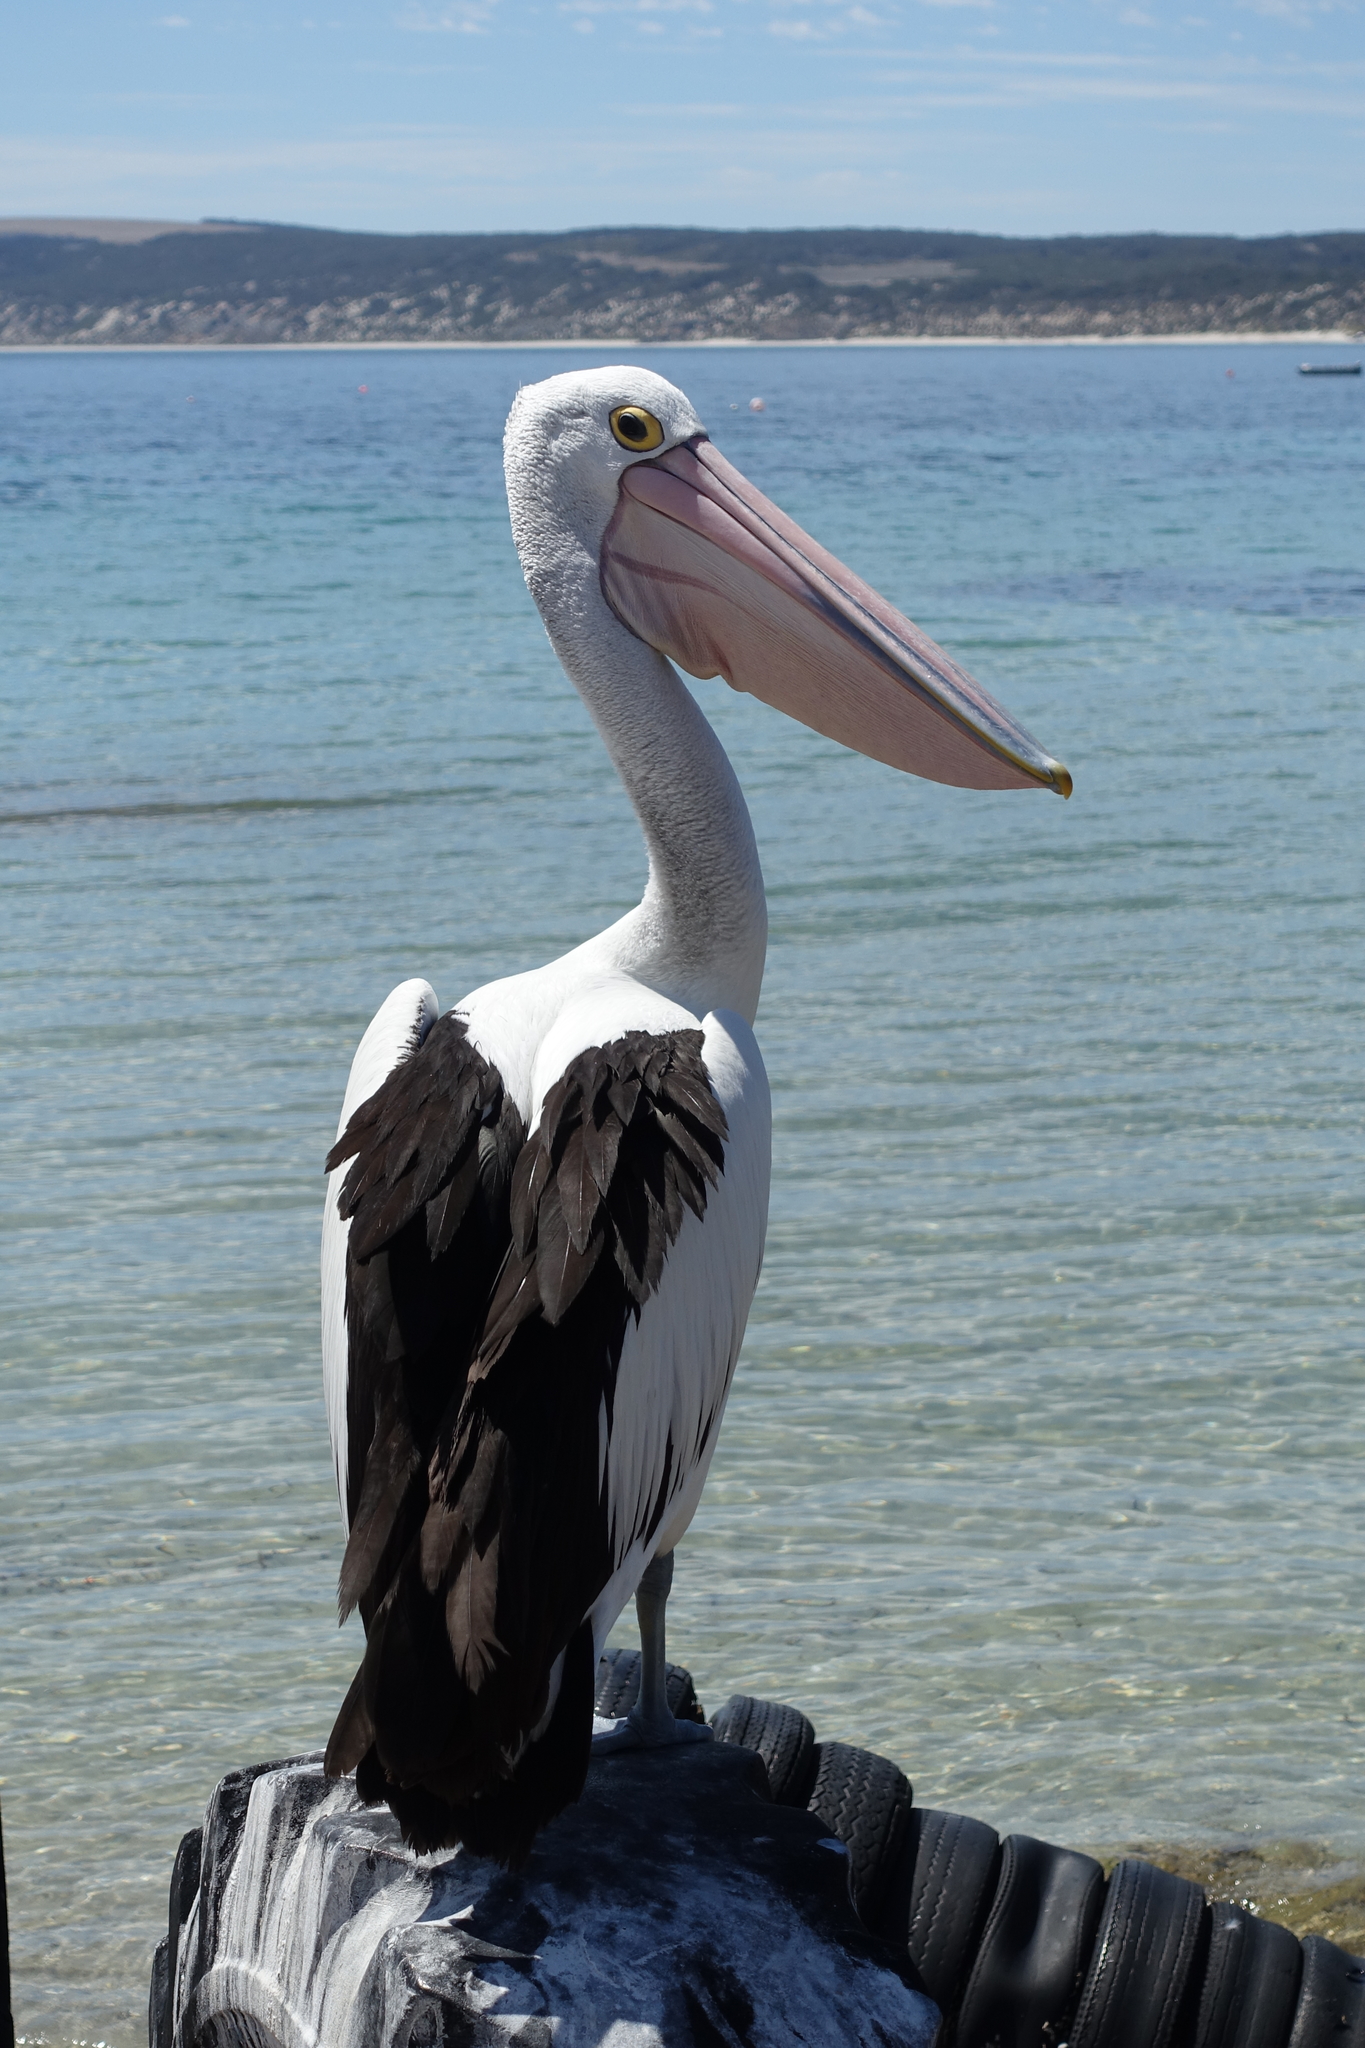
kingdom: Animalia
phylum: Chordata
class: Aves
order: Pelecaniformes
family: Pelecanidae
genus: Pelecanus
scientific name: Pelecanus conspicillatus
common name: Australian pelican
